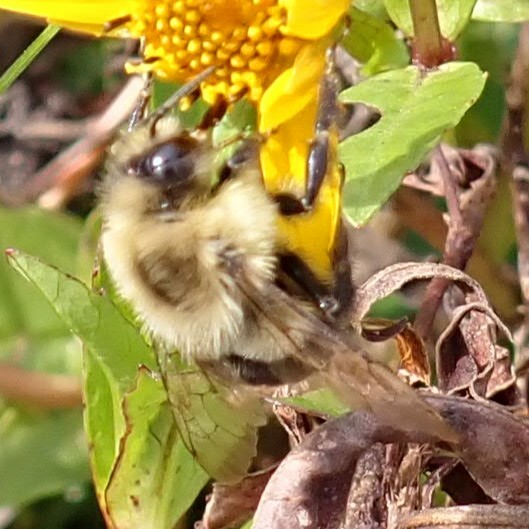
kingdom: Animalia
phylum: Arthropoda
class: Insecta
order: Hymenoptera
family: Apidae
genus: Bombus
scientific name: Bombus impatiens
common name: Common eastern bumble bee
